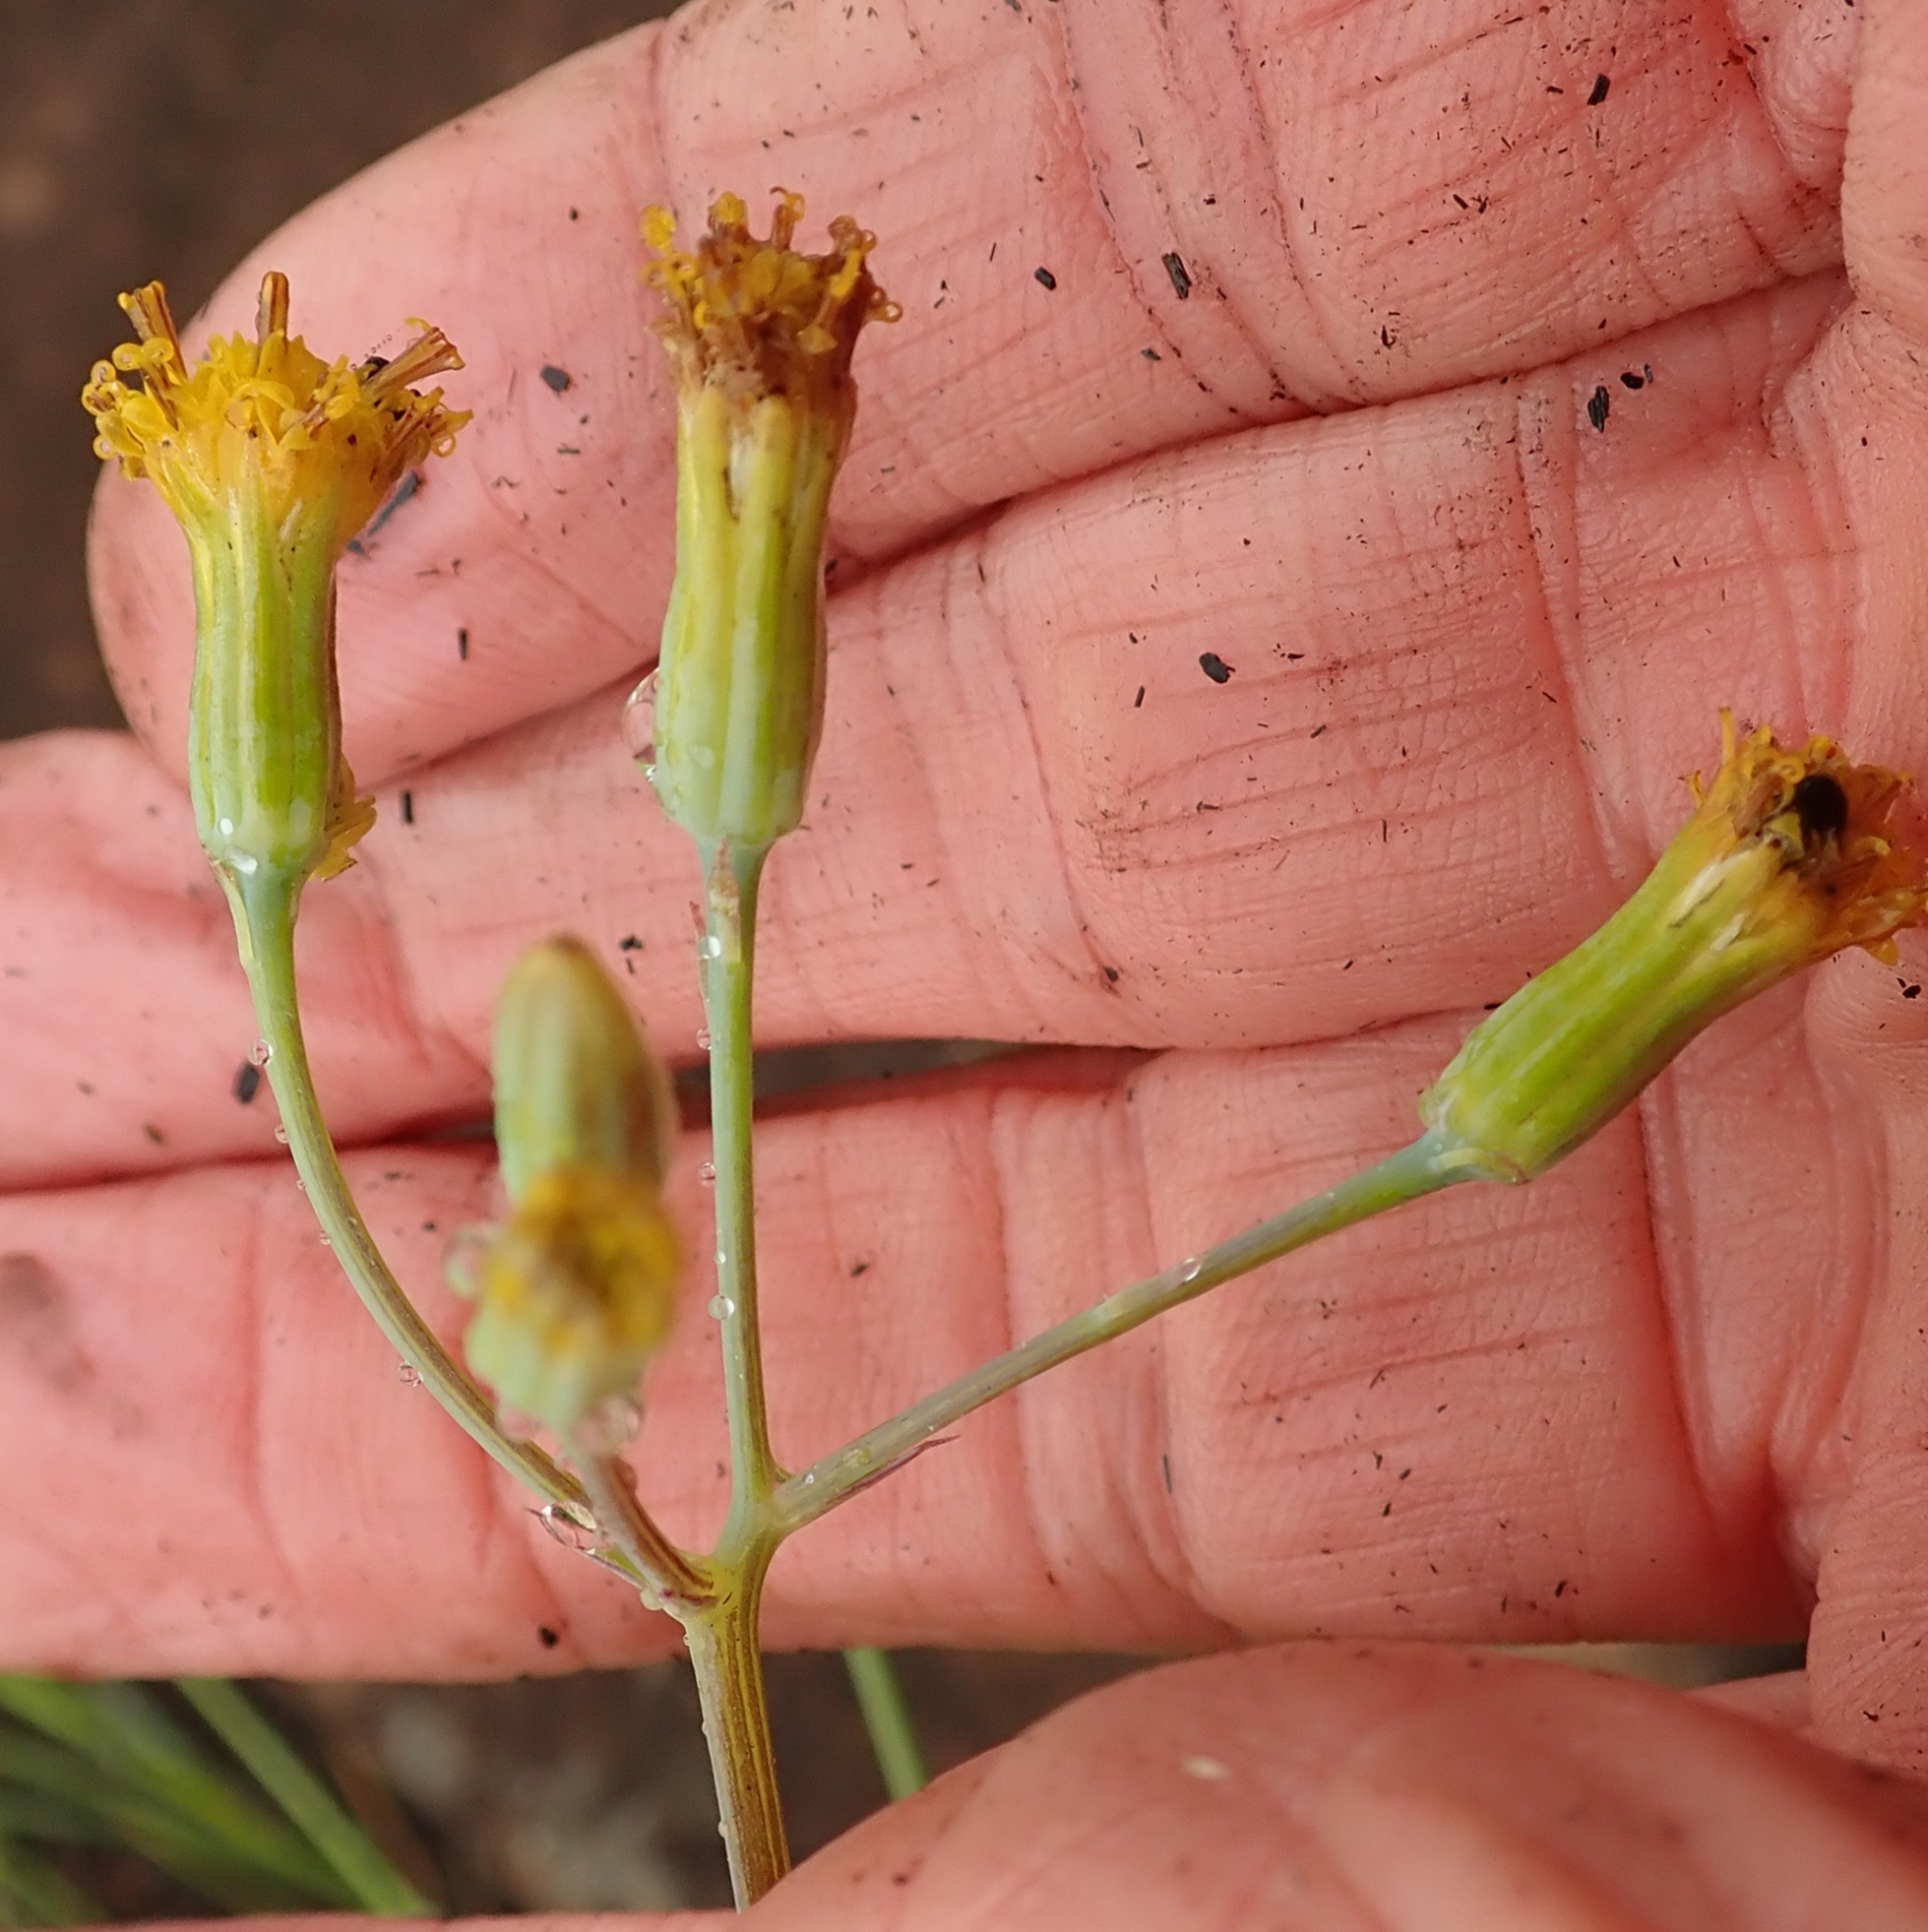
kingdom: Plantae
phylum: Tracheophyta
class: Magnoliopsida
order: Asterales
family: Asteraceae
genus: Senecio
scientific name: Senecio oxyriifolius
